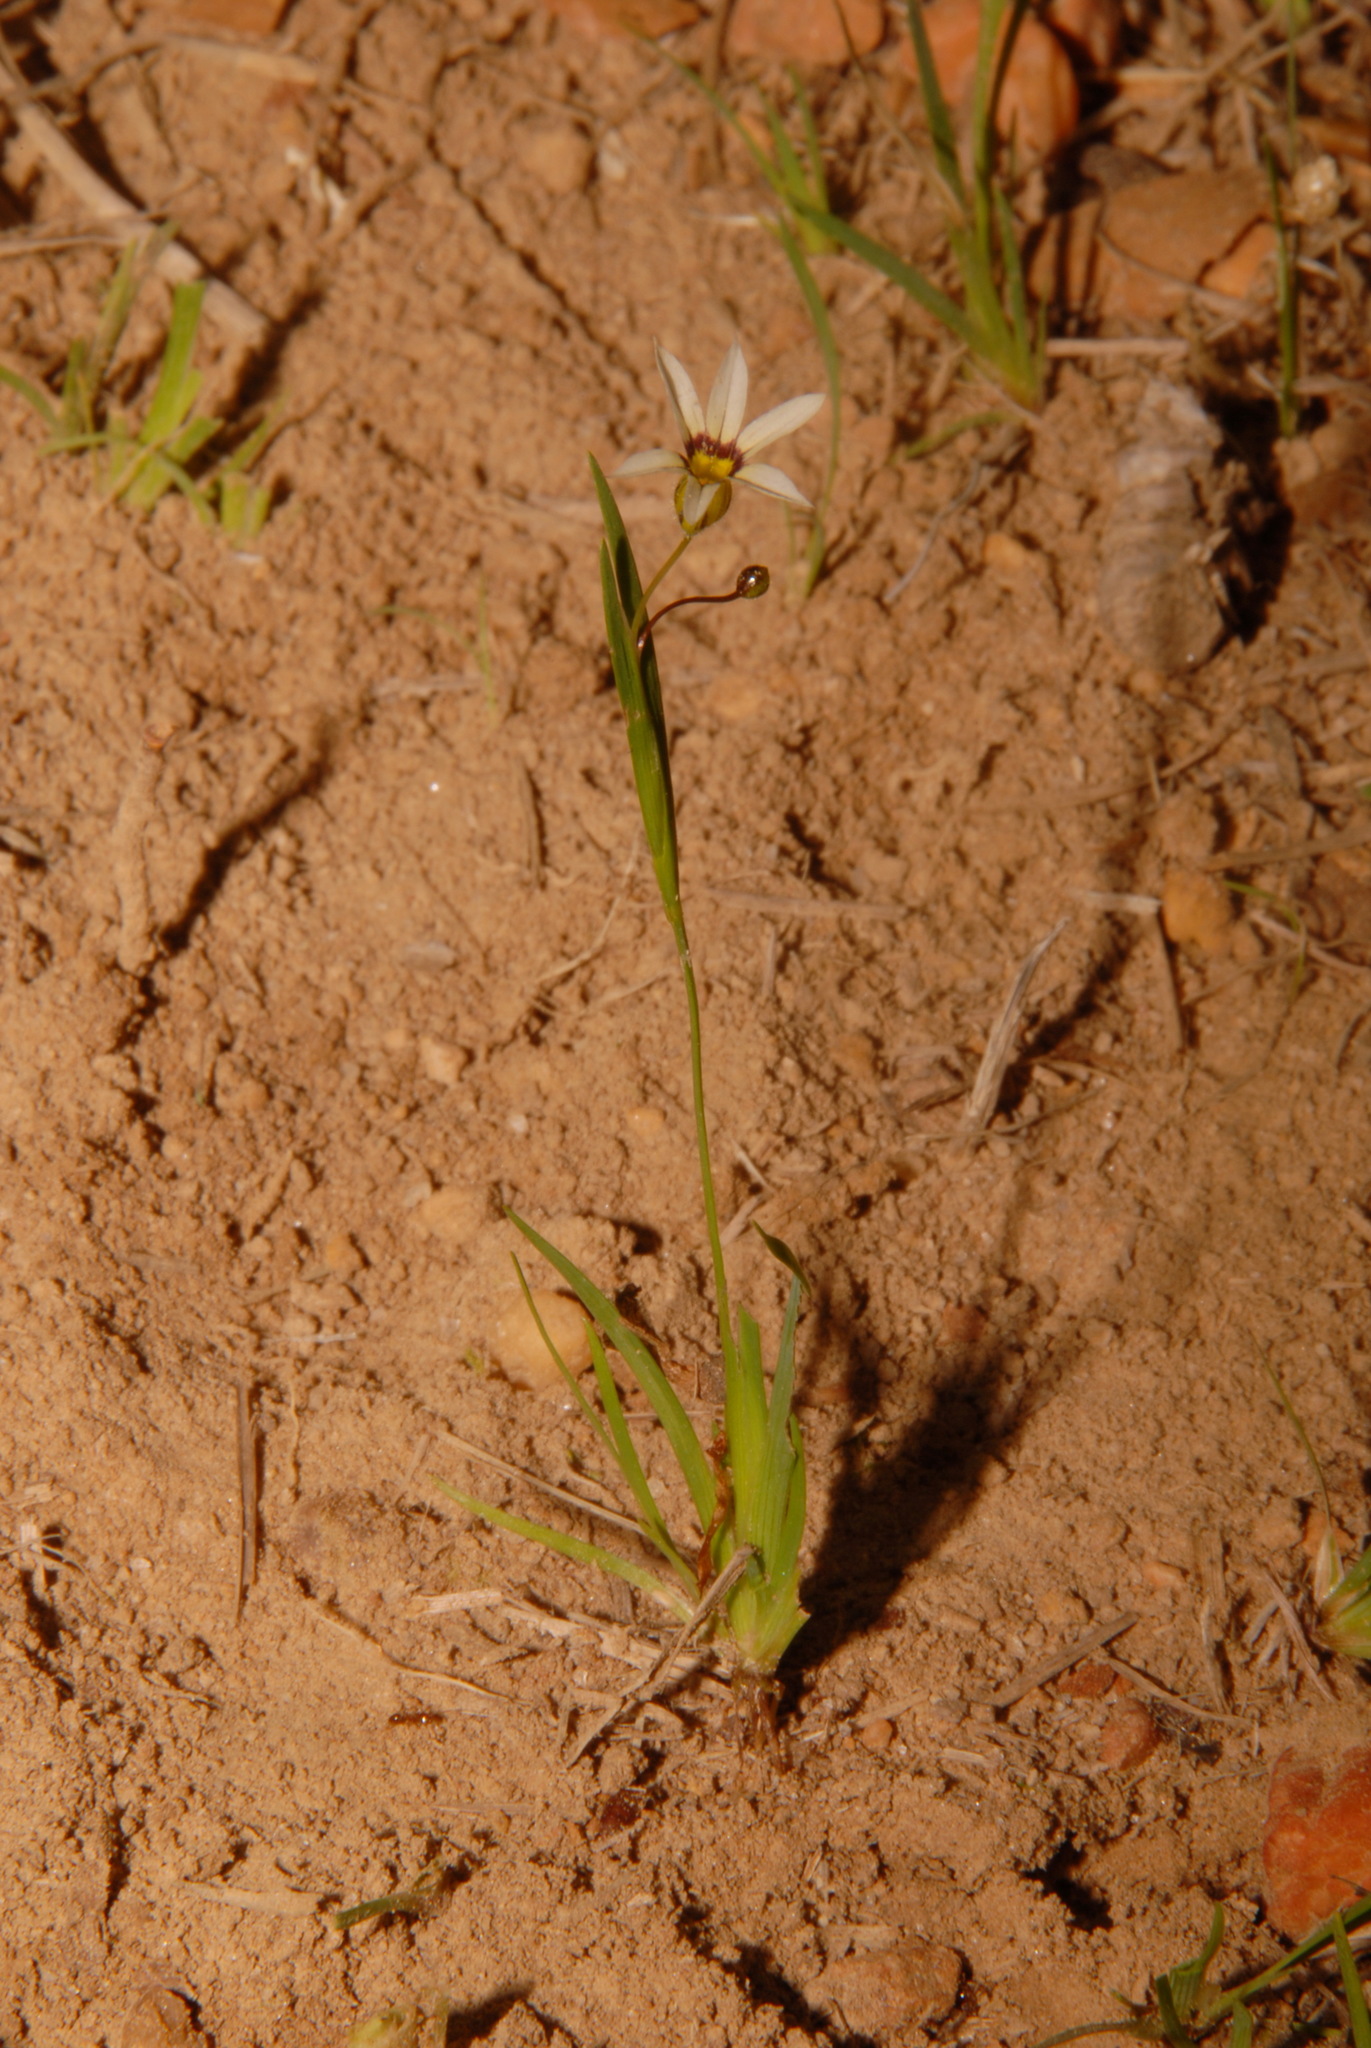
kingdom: Plantae
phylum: Tracheophyta
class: Liliopsida
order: Asparagales
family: Iridaceae
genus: Sisyrinchium
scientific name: Sisyrinchium micranthum
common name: Bermuda pigroot
